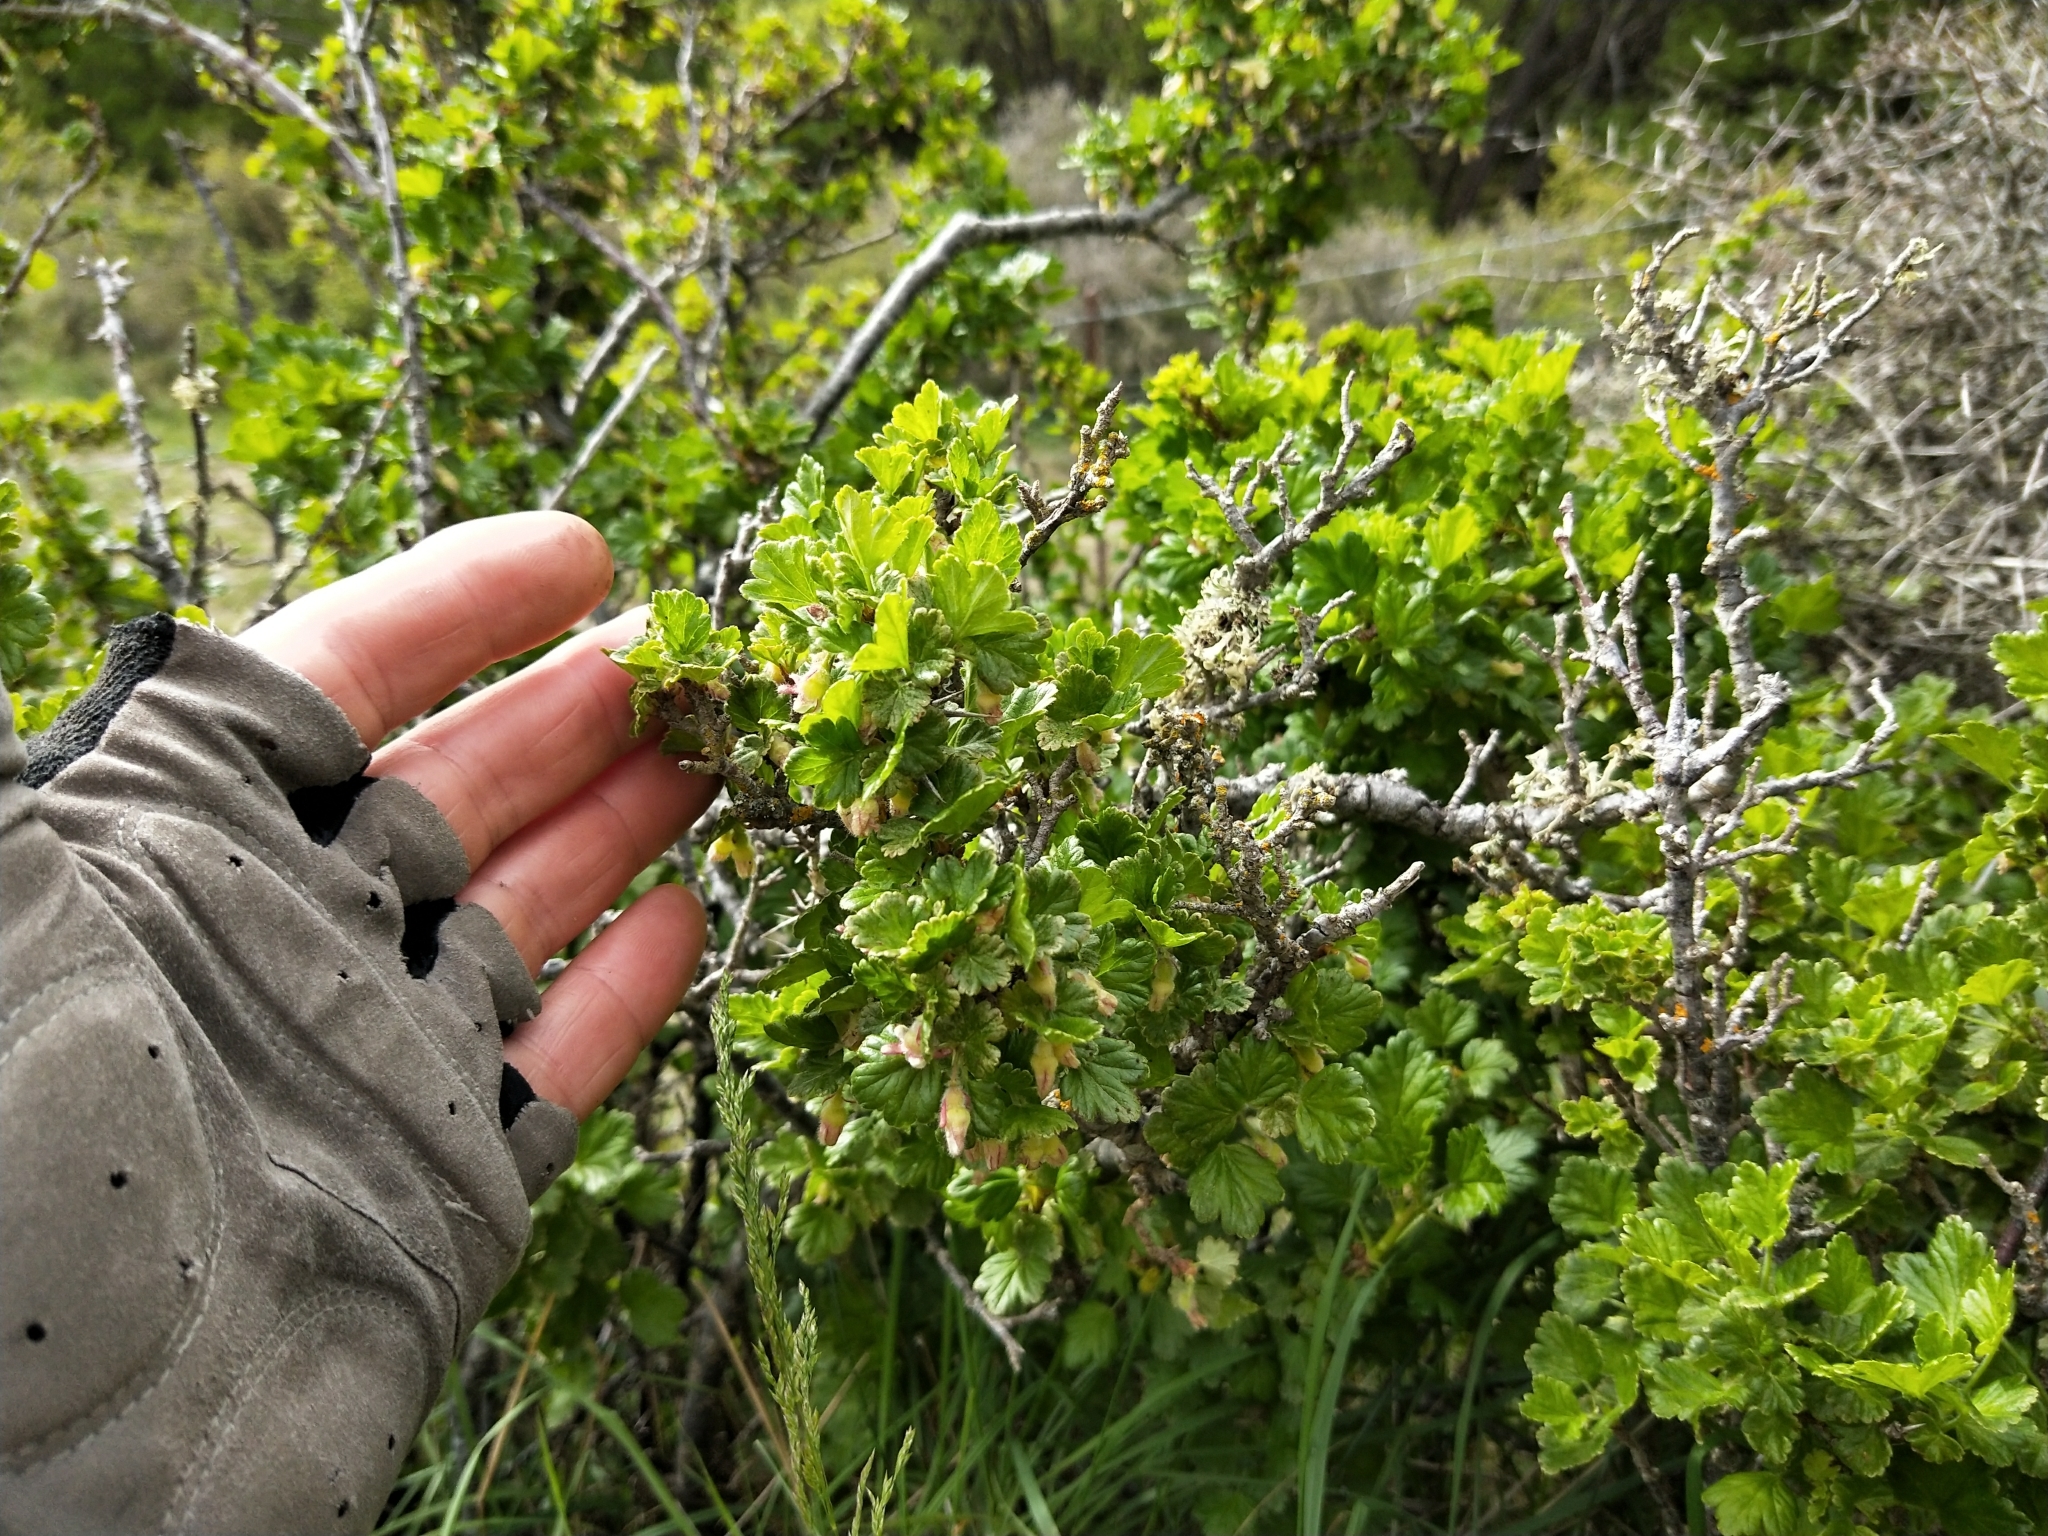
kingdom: Plantae
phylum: Tracheophyta
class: Magnoliopsida
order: Saxifragales
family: Grossulariaceae
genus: Ribes
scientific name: Ribes uva-crispa
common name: Gooseberry
